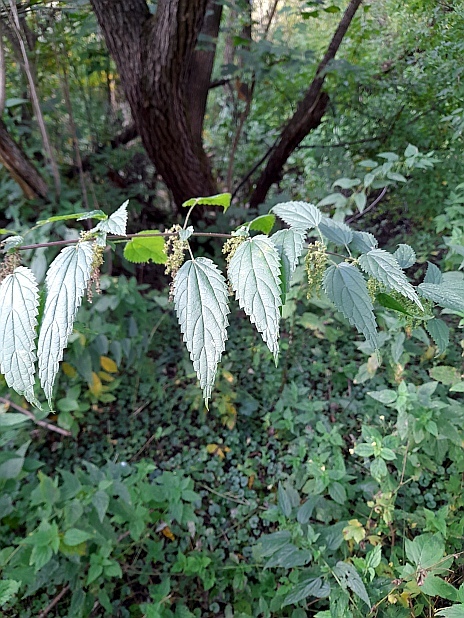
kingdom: Plantae
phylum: Tracheophyta
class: Magnoliopsida
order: Rosales
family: Urticaceae
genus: Urtica
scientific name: Urtica dioica
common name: Common nettle
